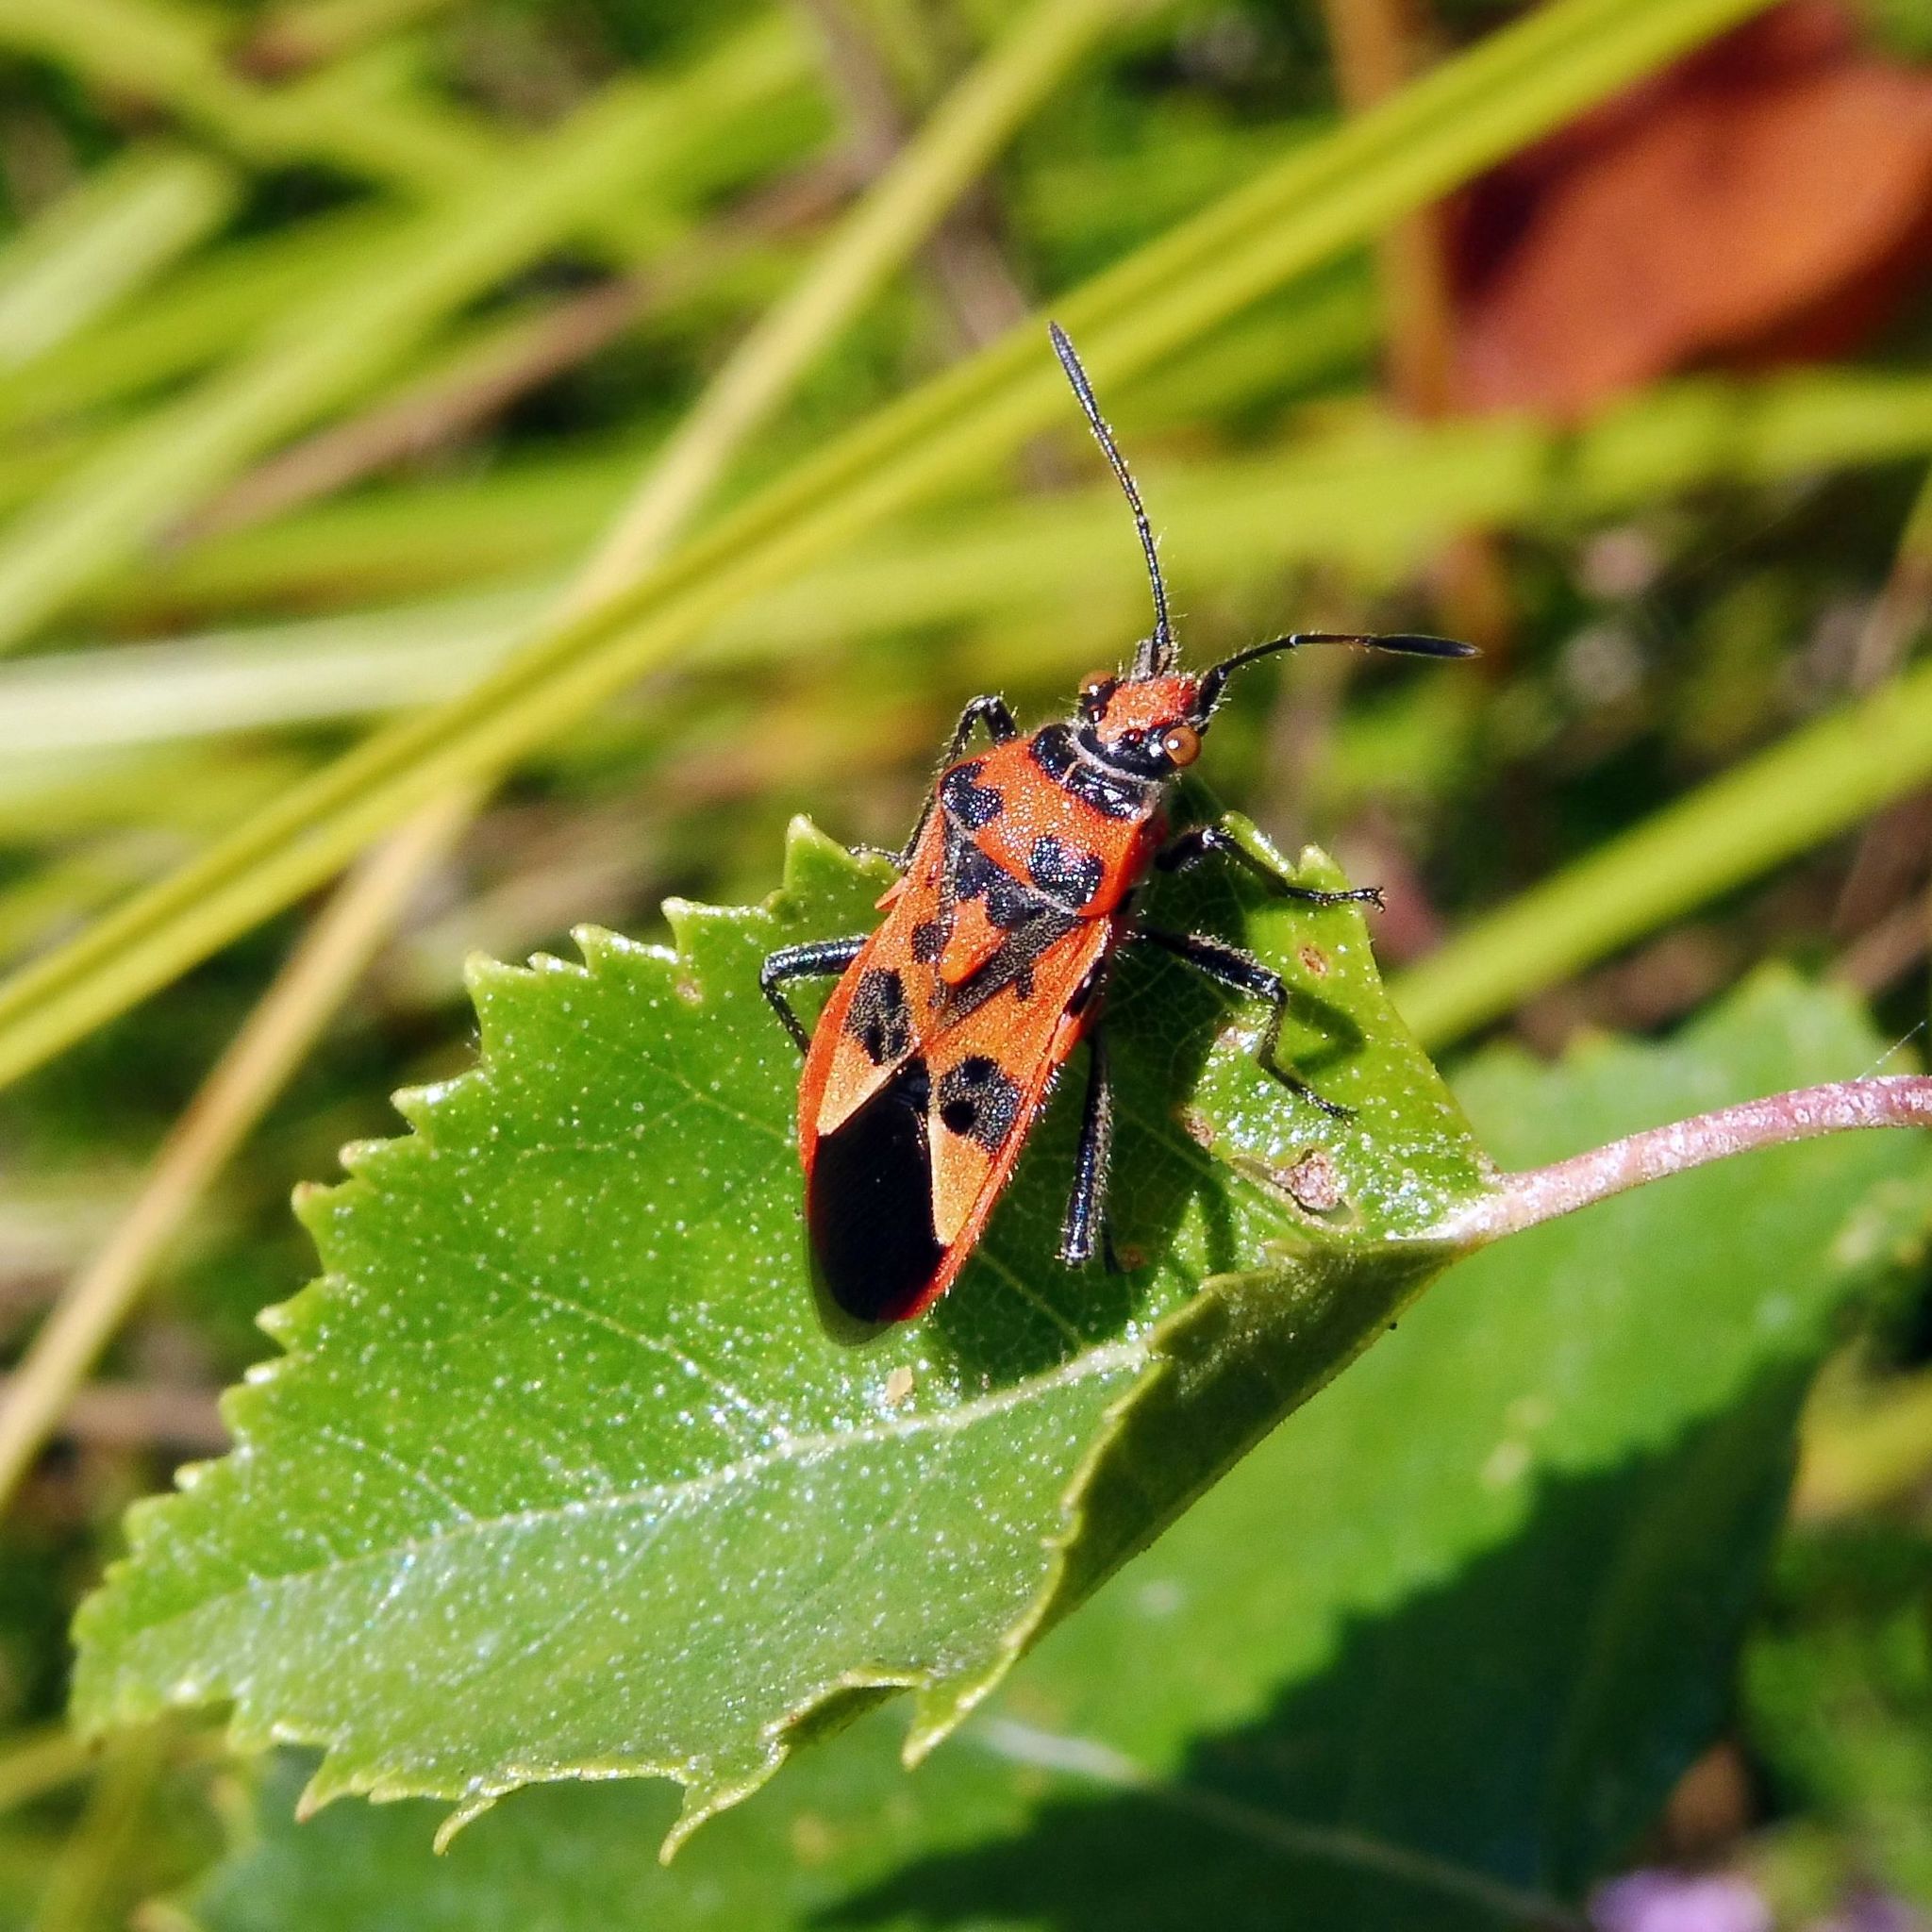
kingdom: Animalia
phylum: Arthropoda
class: Insecta
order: Hemiptera
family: Rhopalidae
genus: Corizus
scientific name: Corizus hyoscyami
